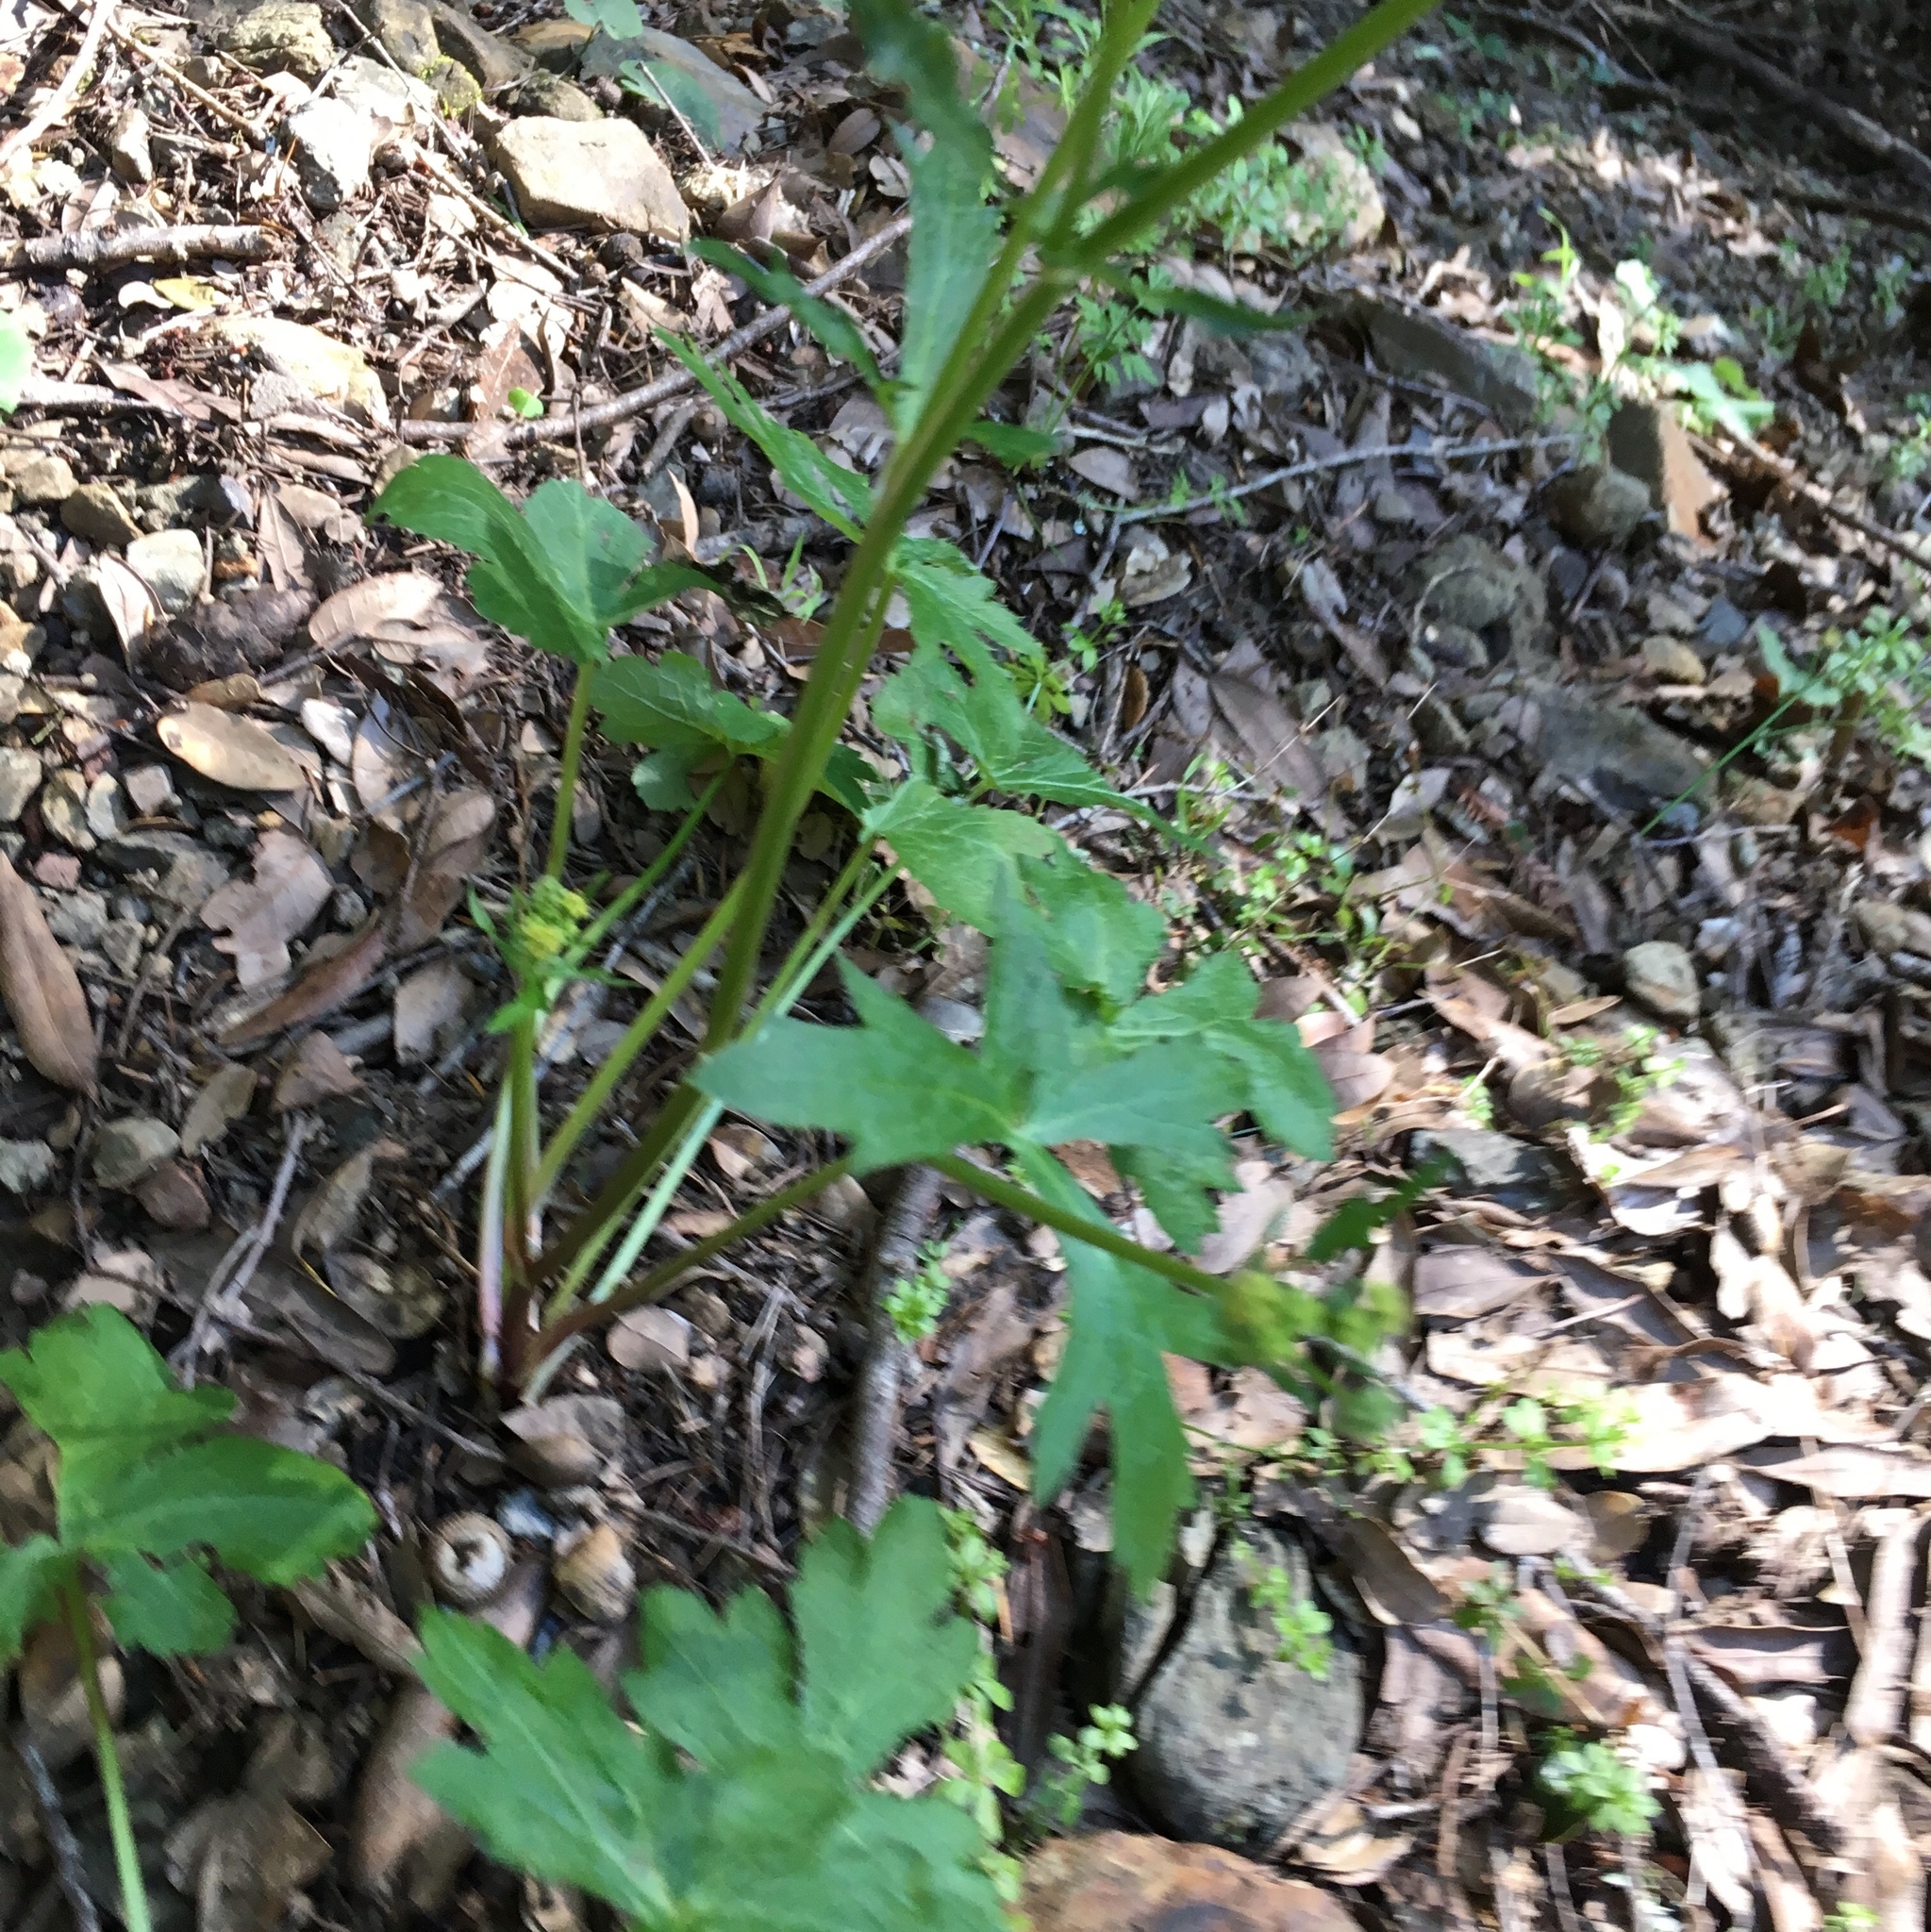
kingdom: Plantae
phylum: Tracheophyta
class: Magnoliopsida
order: Apiales
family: Apiaceae
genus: Sanicula
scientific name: Sanicula crassicaulis
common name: Western snakeroot
